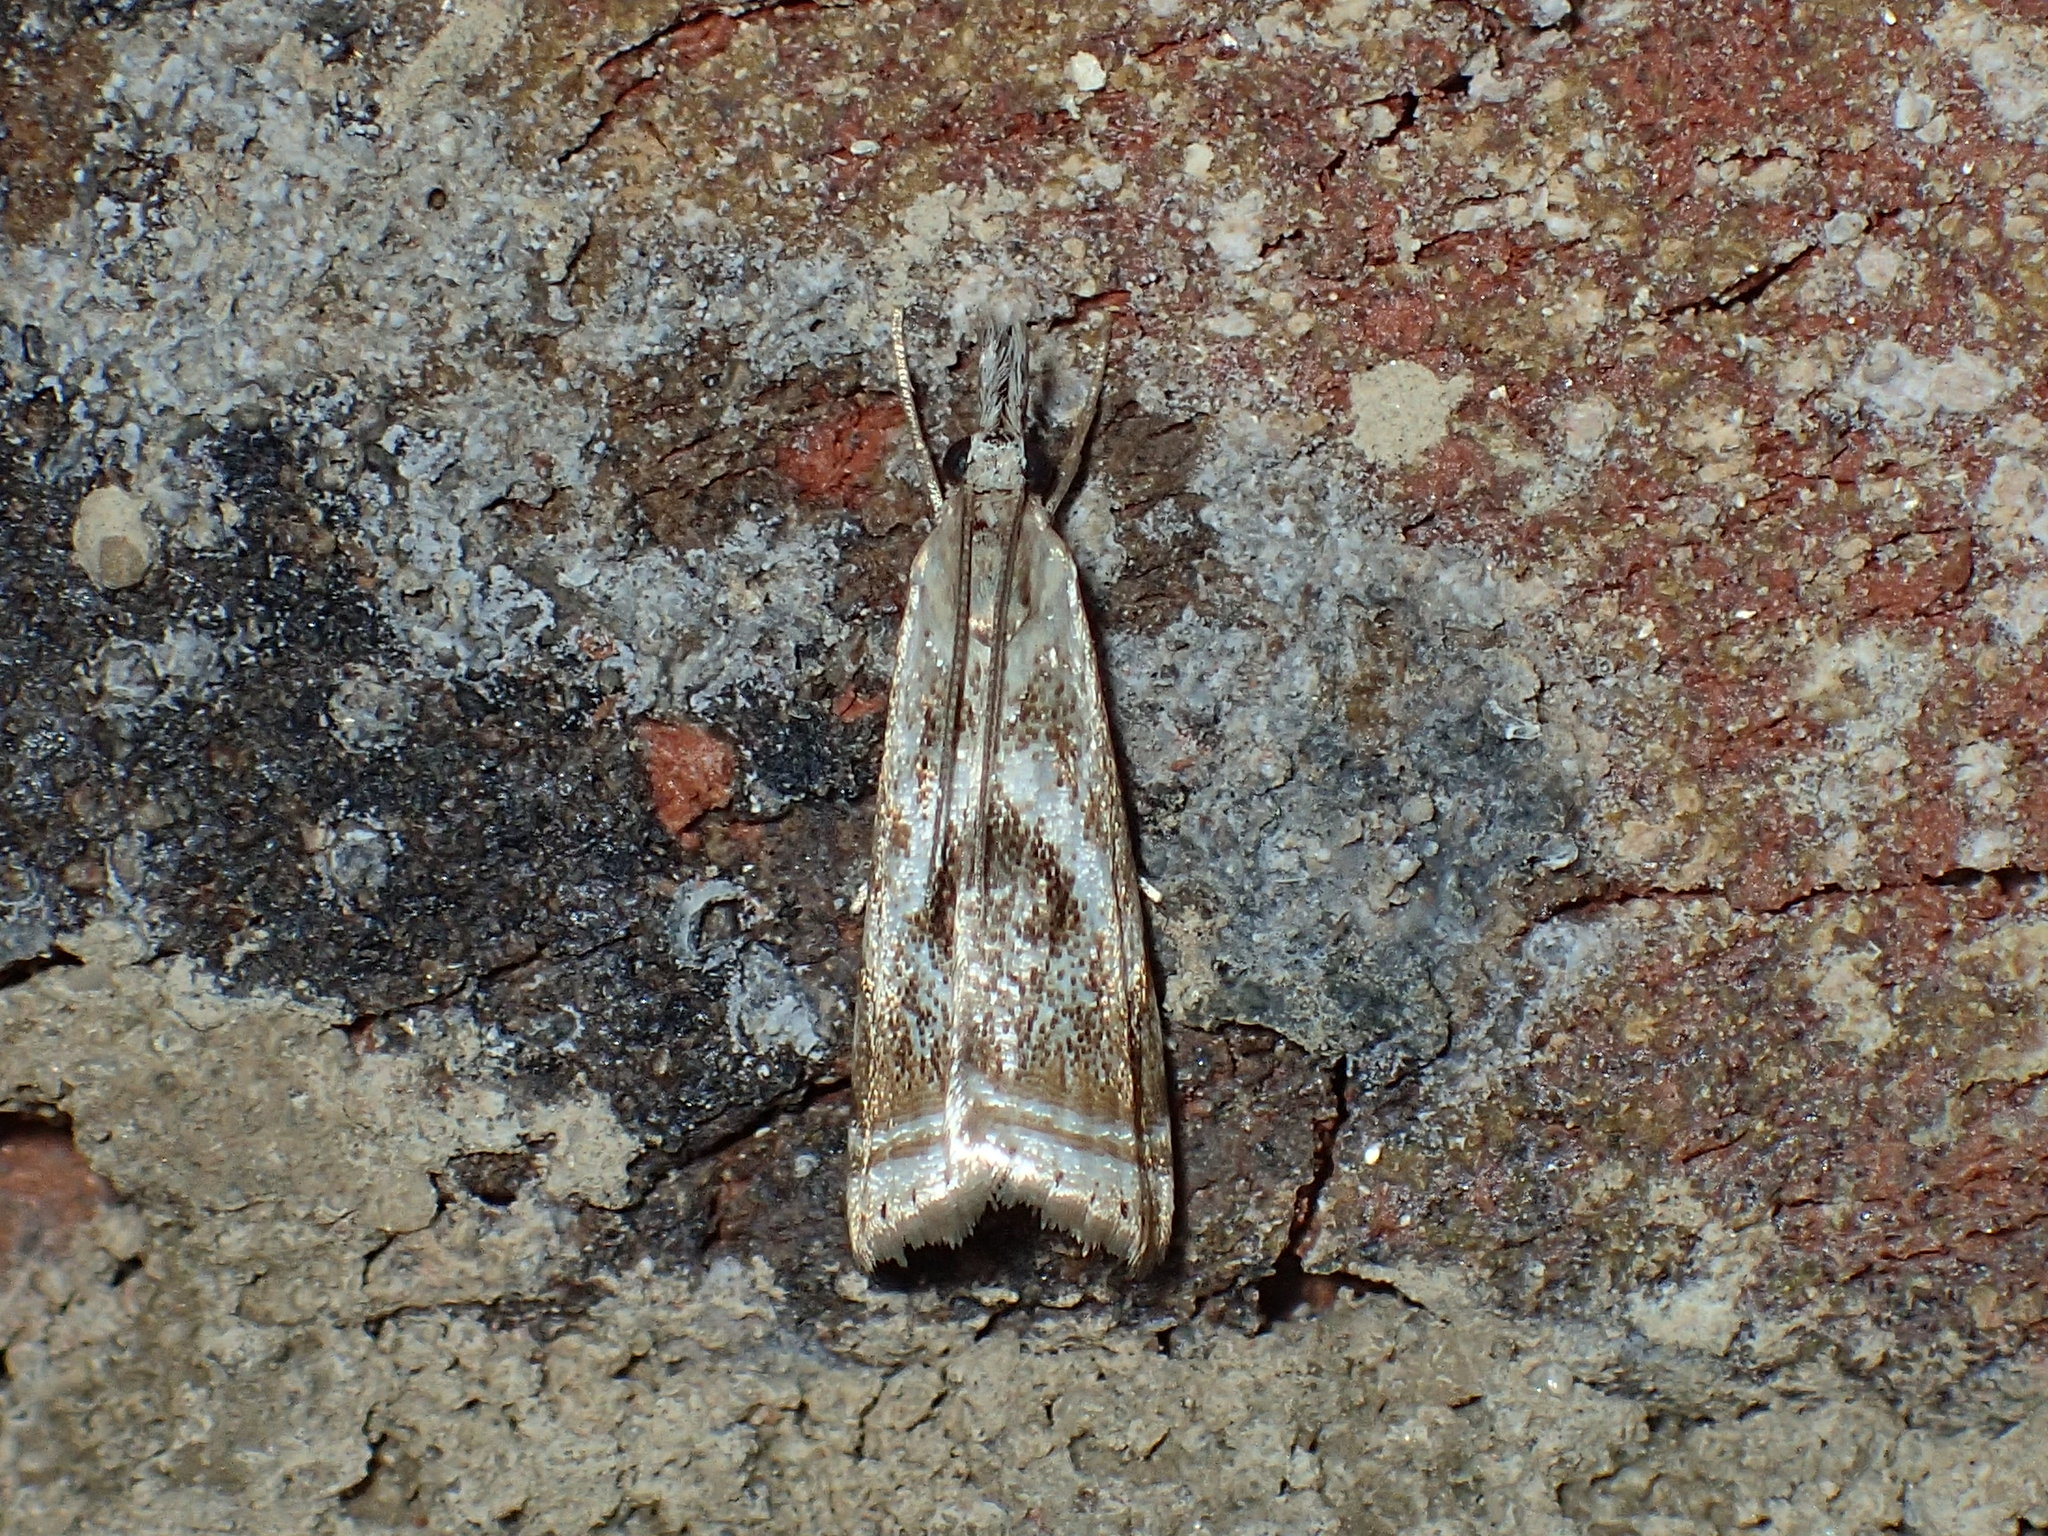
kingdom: Animalia
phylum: Arthropoda
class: Insecta
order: Lepidoptera
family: Crambidae
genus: Microcrambus
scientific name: Microcrambus elegans
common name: Elegant grass-veneer
